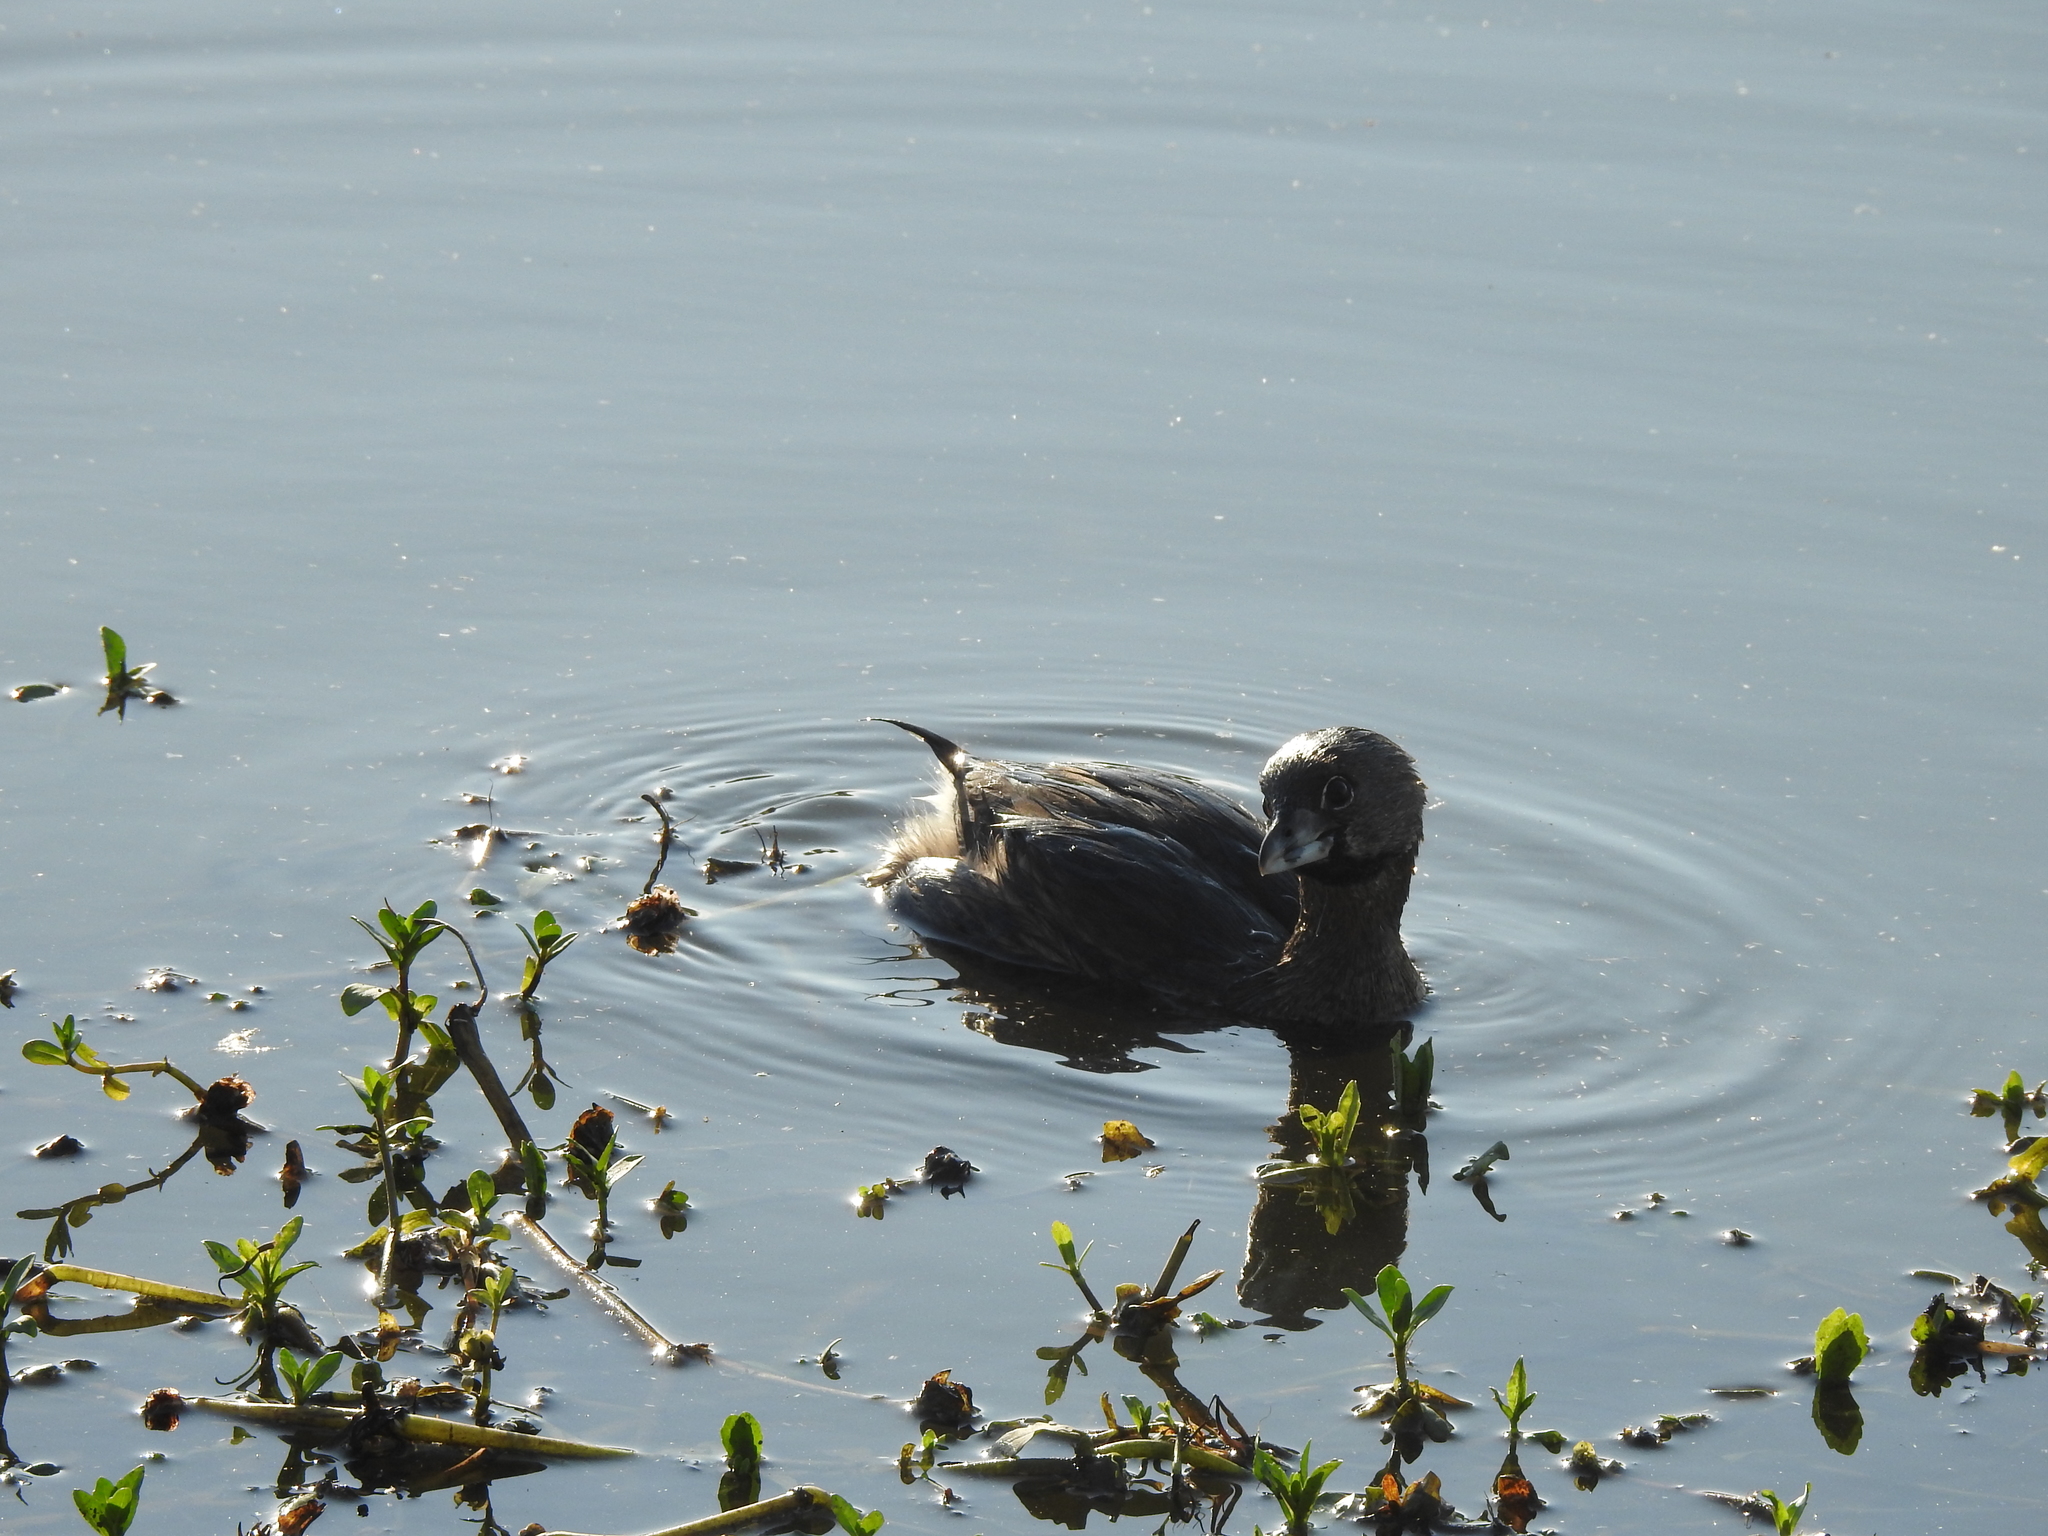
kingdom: Animalia
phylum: Chordata
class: Aves
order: Podicipediformes
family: Podicipedidae
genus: Podilymbus
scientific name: Podilymbus podiceps
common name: Pied-billed grebe
